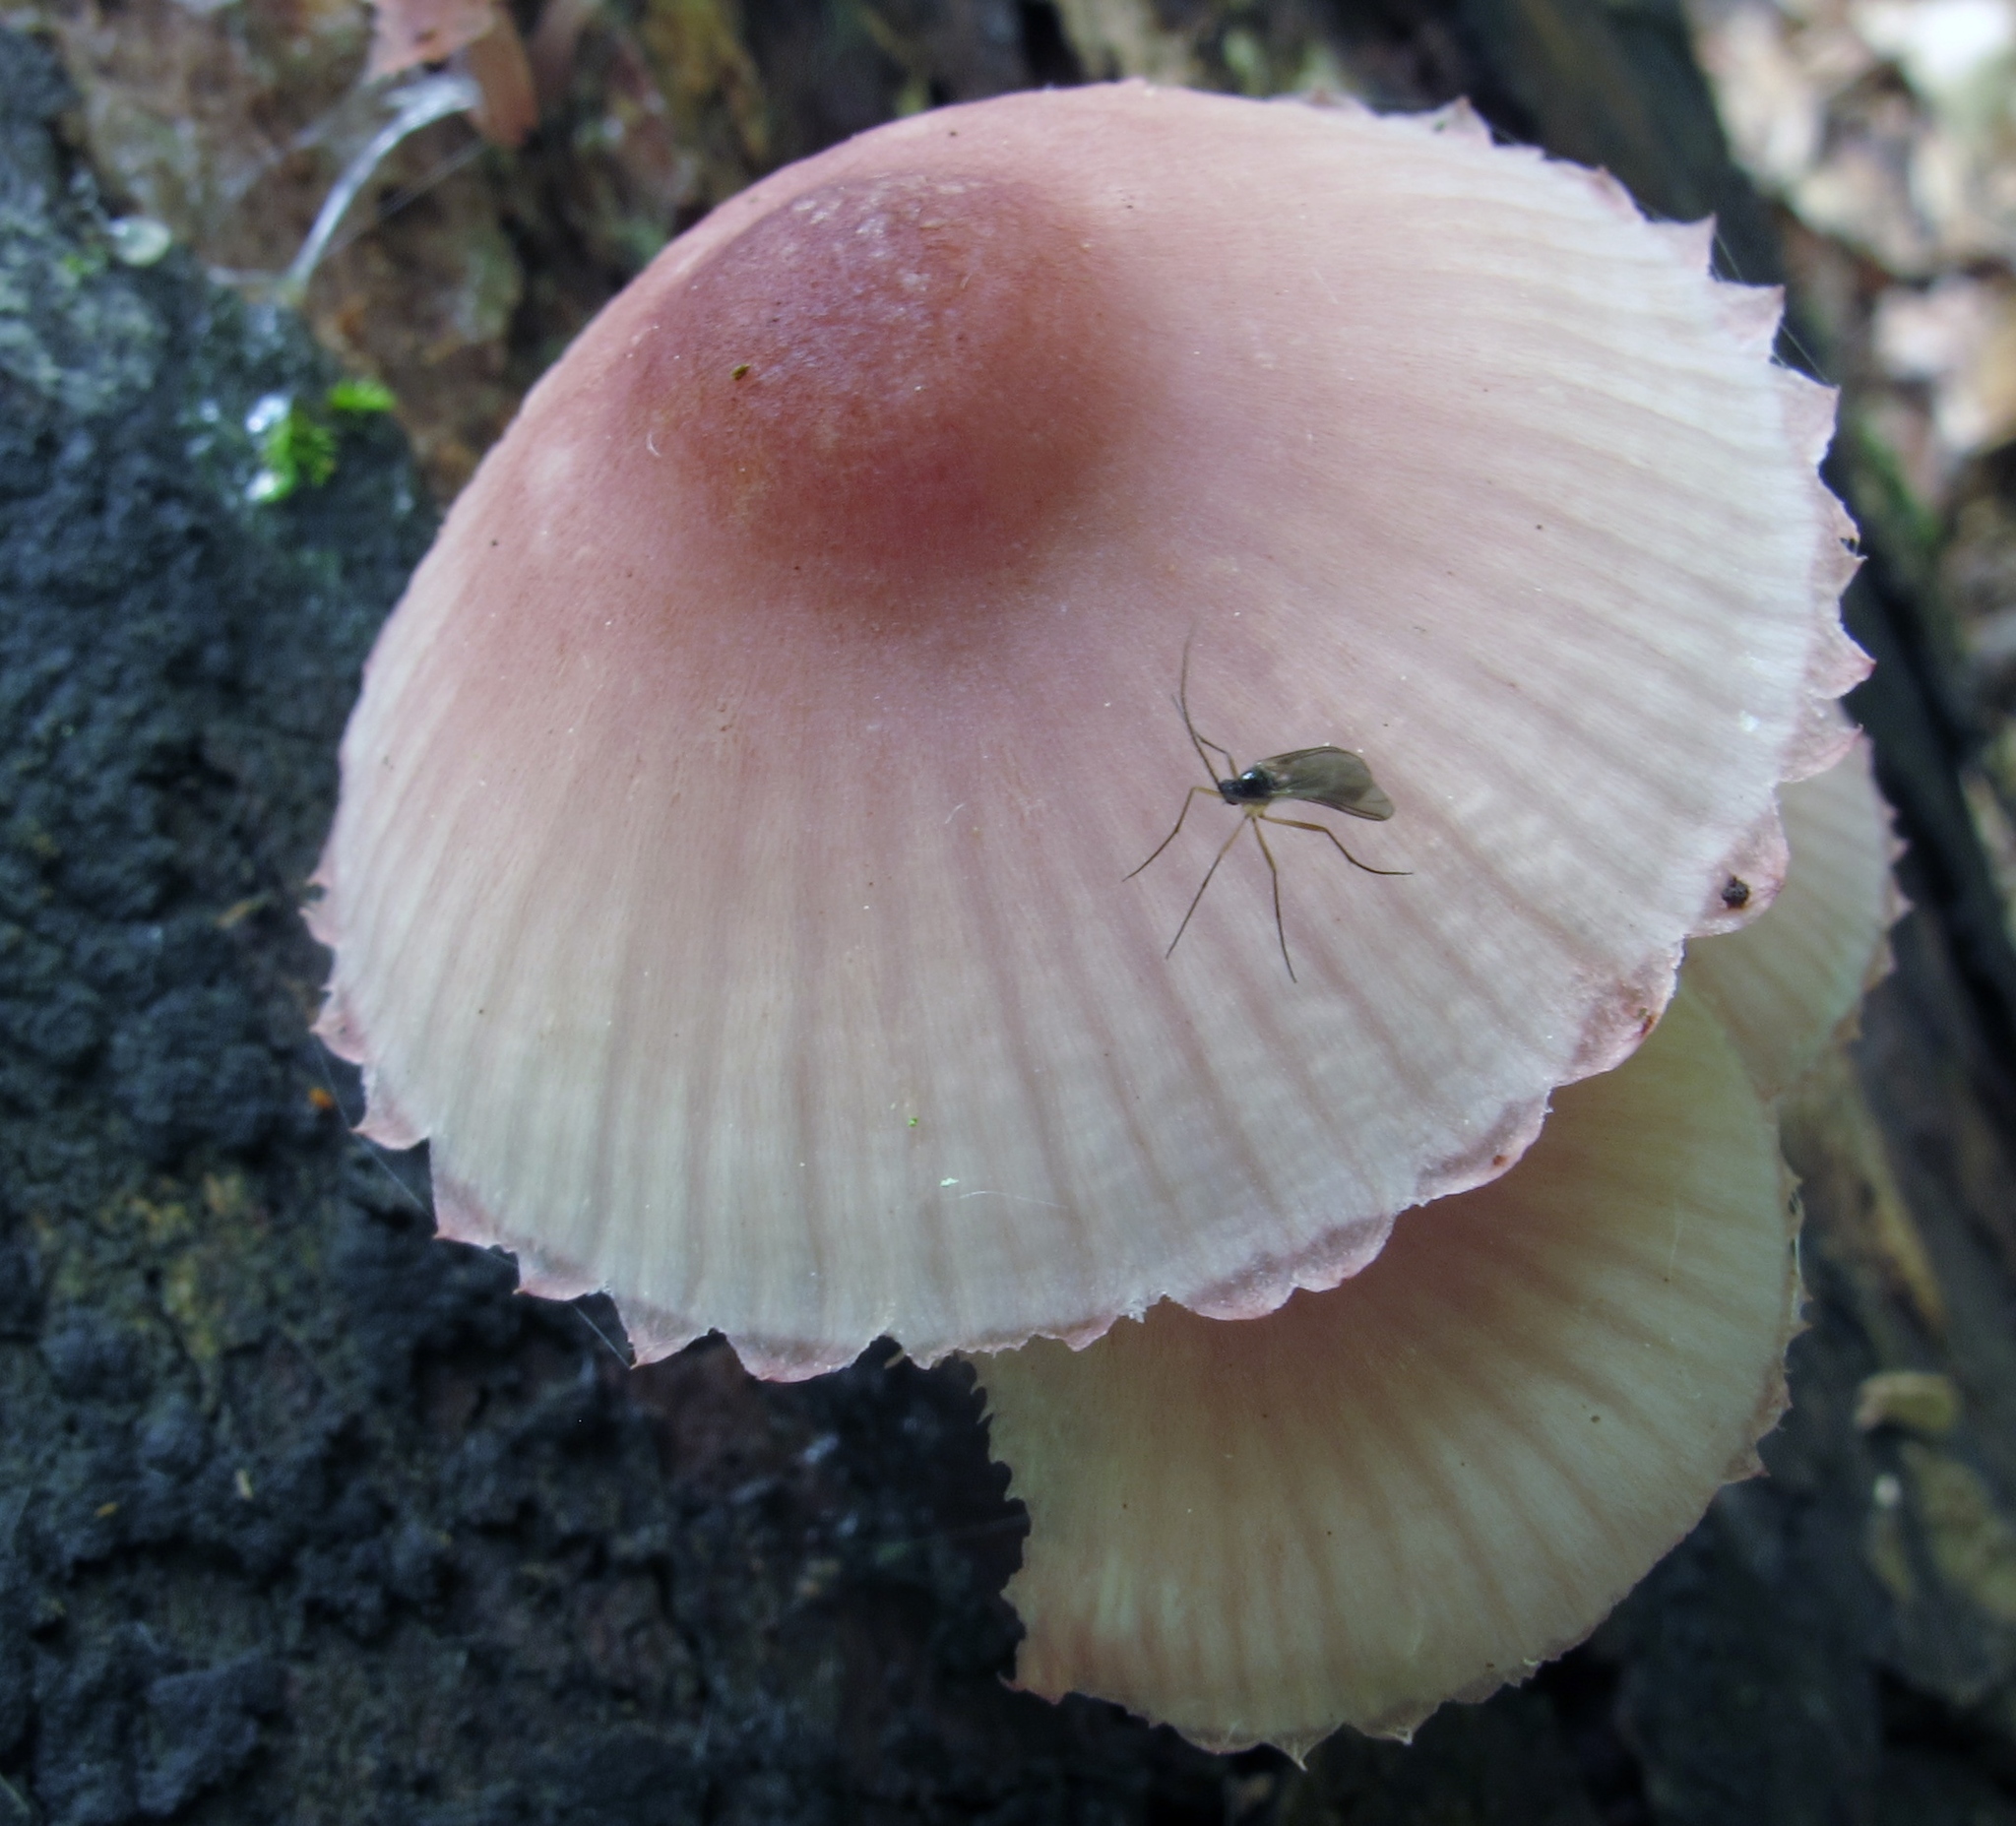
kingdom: Fungi
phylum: Basidiomycota
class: Agaricomycetes
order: Agaricales
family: Mycenaceae
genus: Mycena
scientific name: Mycena haematopus
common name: Burgundydrop bonnet
